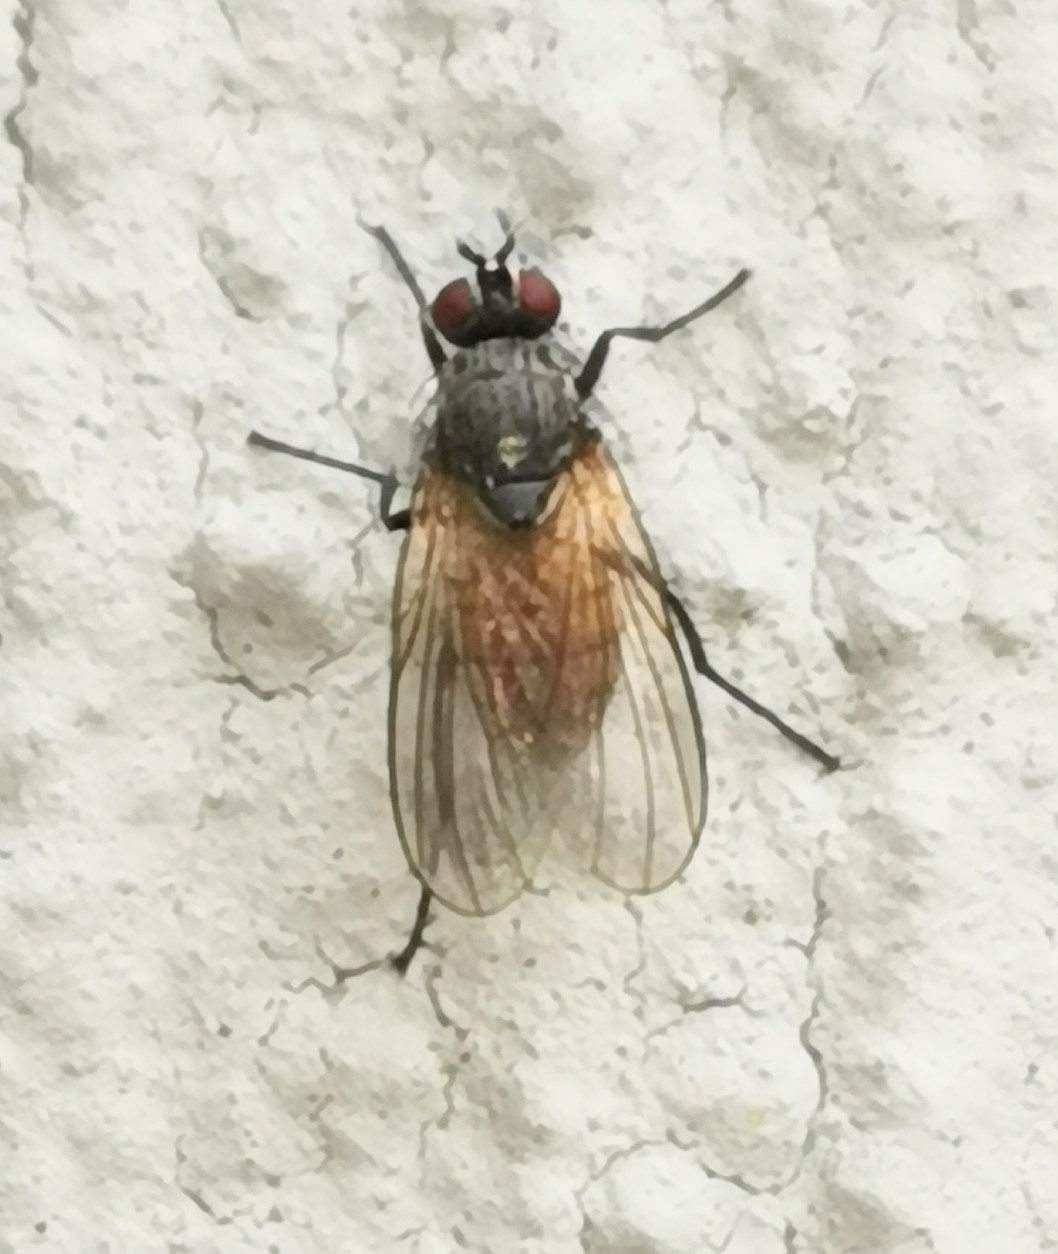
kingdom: Animalia
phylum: Arthropoda
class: Insecta
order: Diptera
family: Muscidae
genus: Thricops
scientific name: Thricops semicinereus
